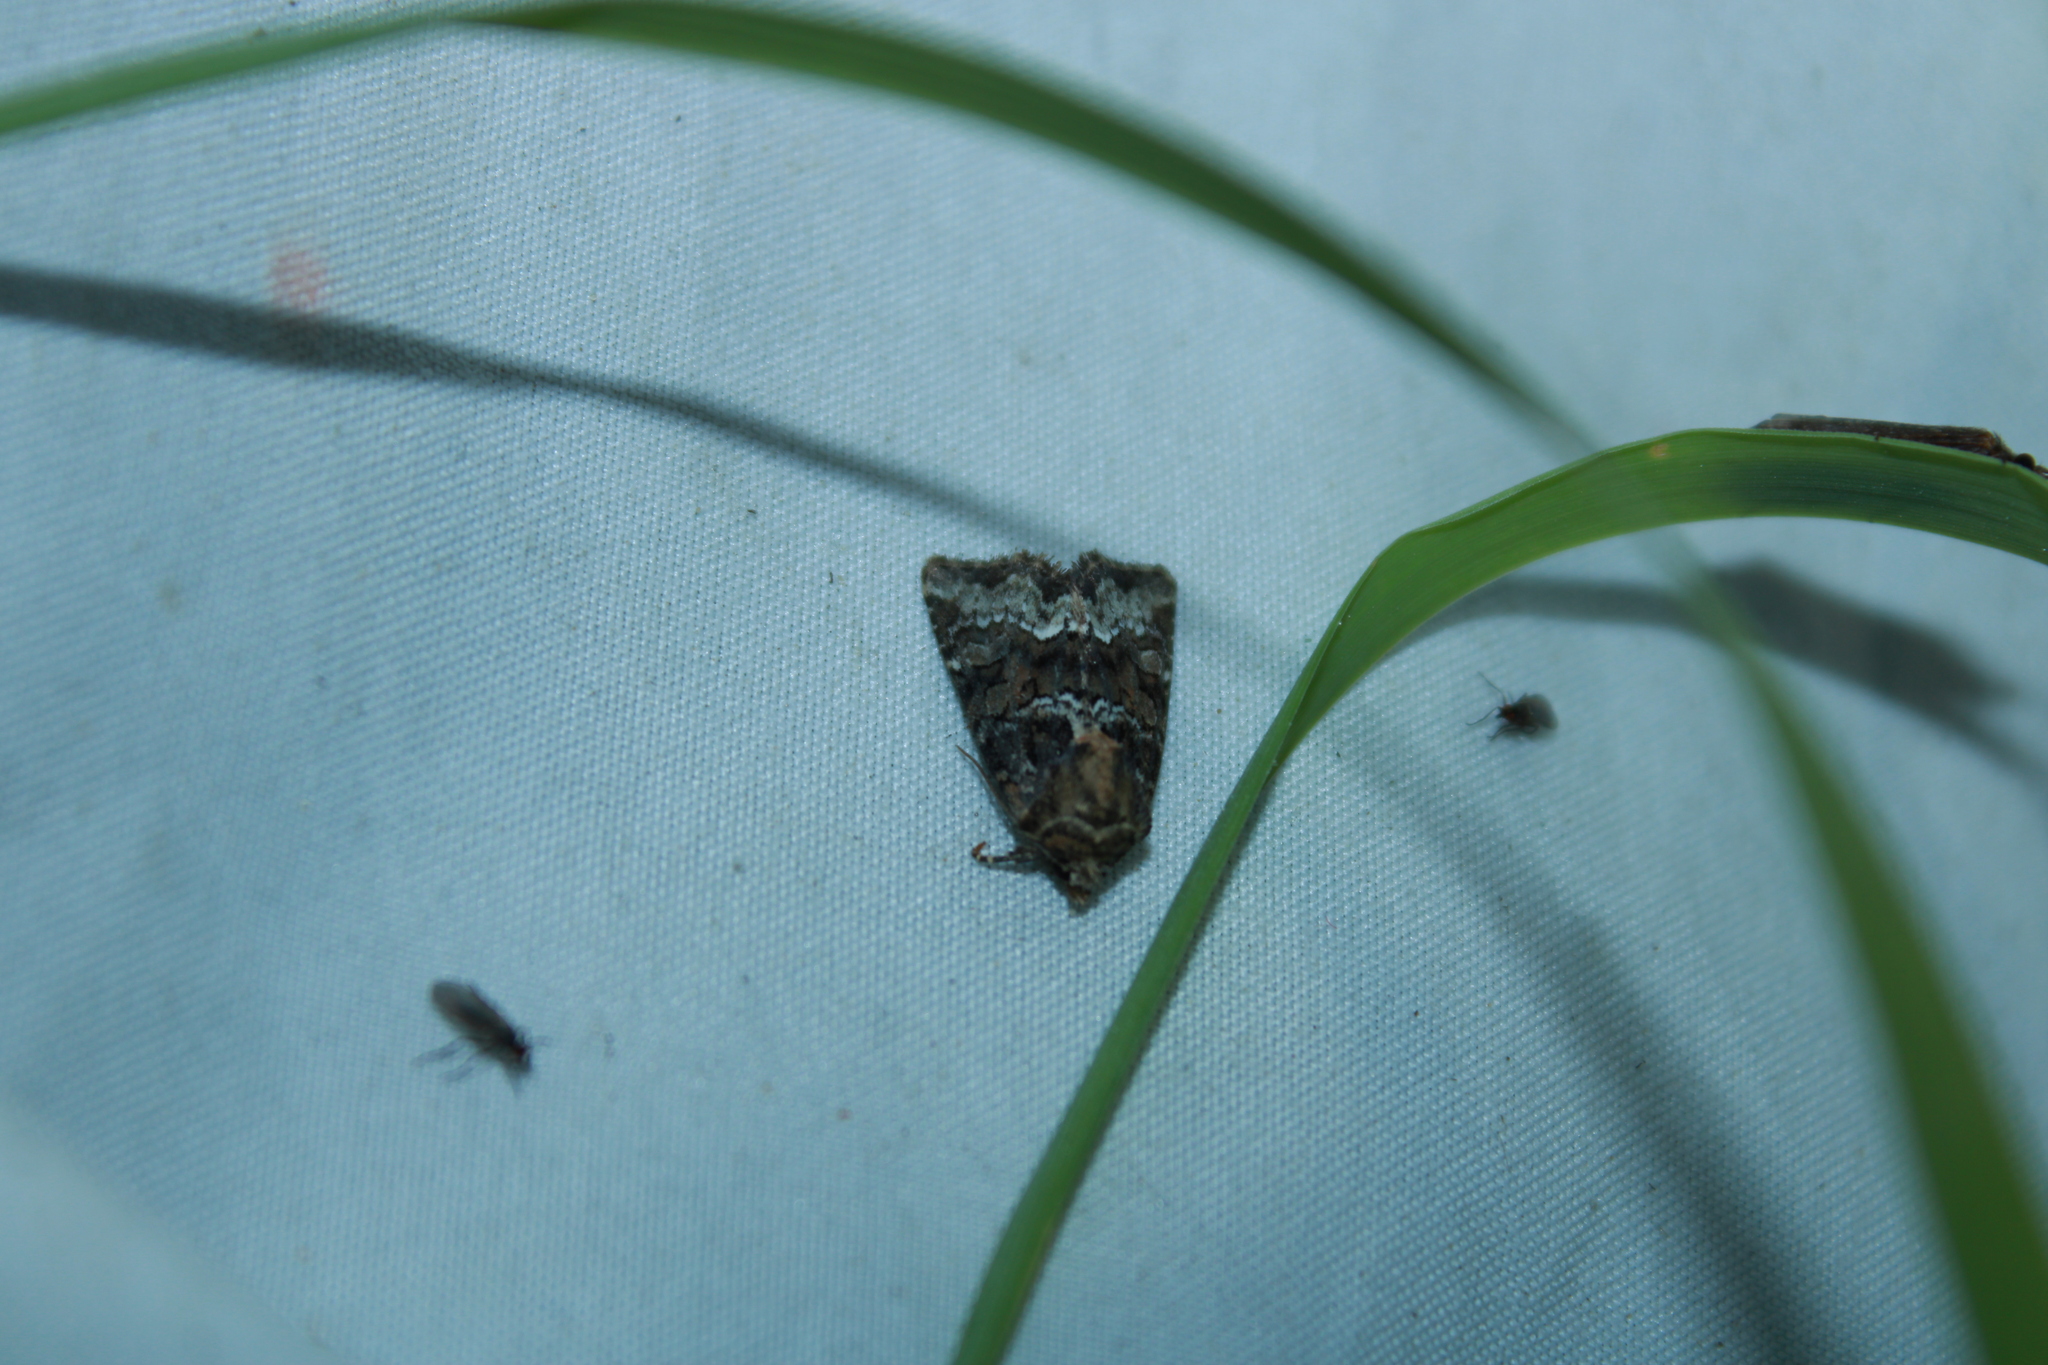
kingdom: Animalia
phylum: Arthropoda
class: Insecta
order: Lepidoptera
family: Noctuidae
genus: Oligia
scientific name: Oligia strigilis
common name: Marbled minor
